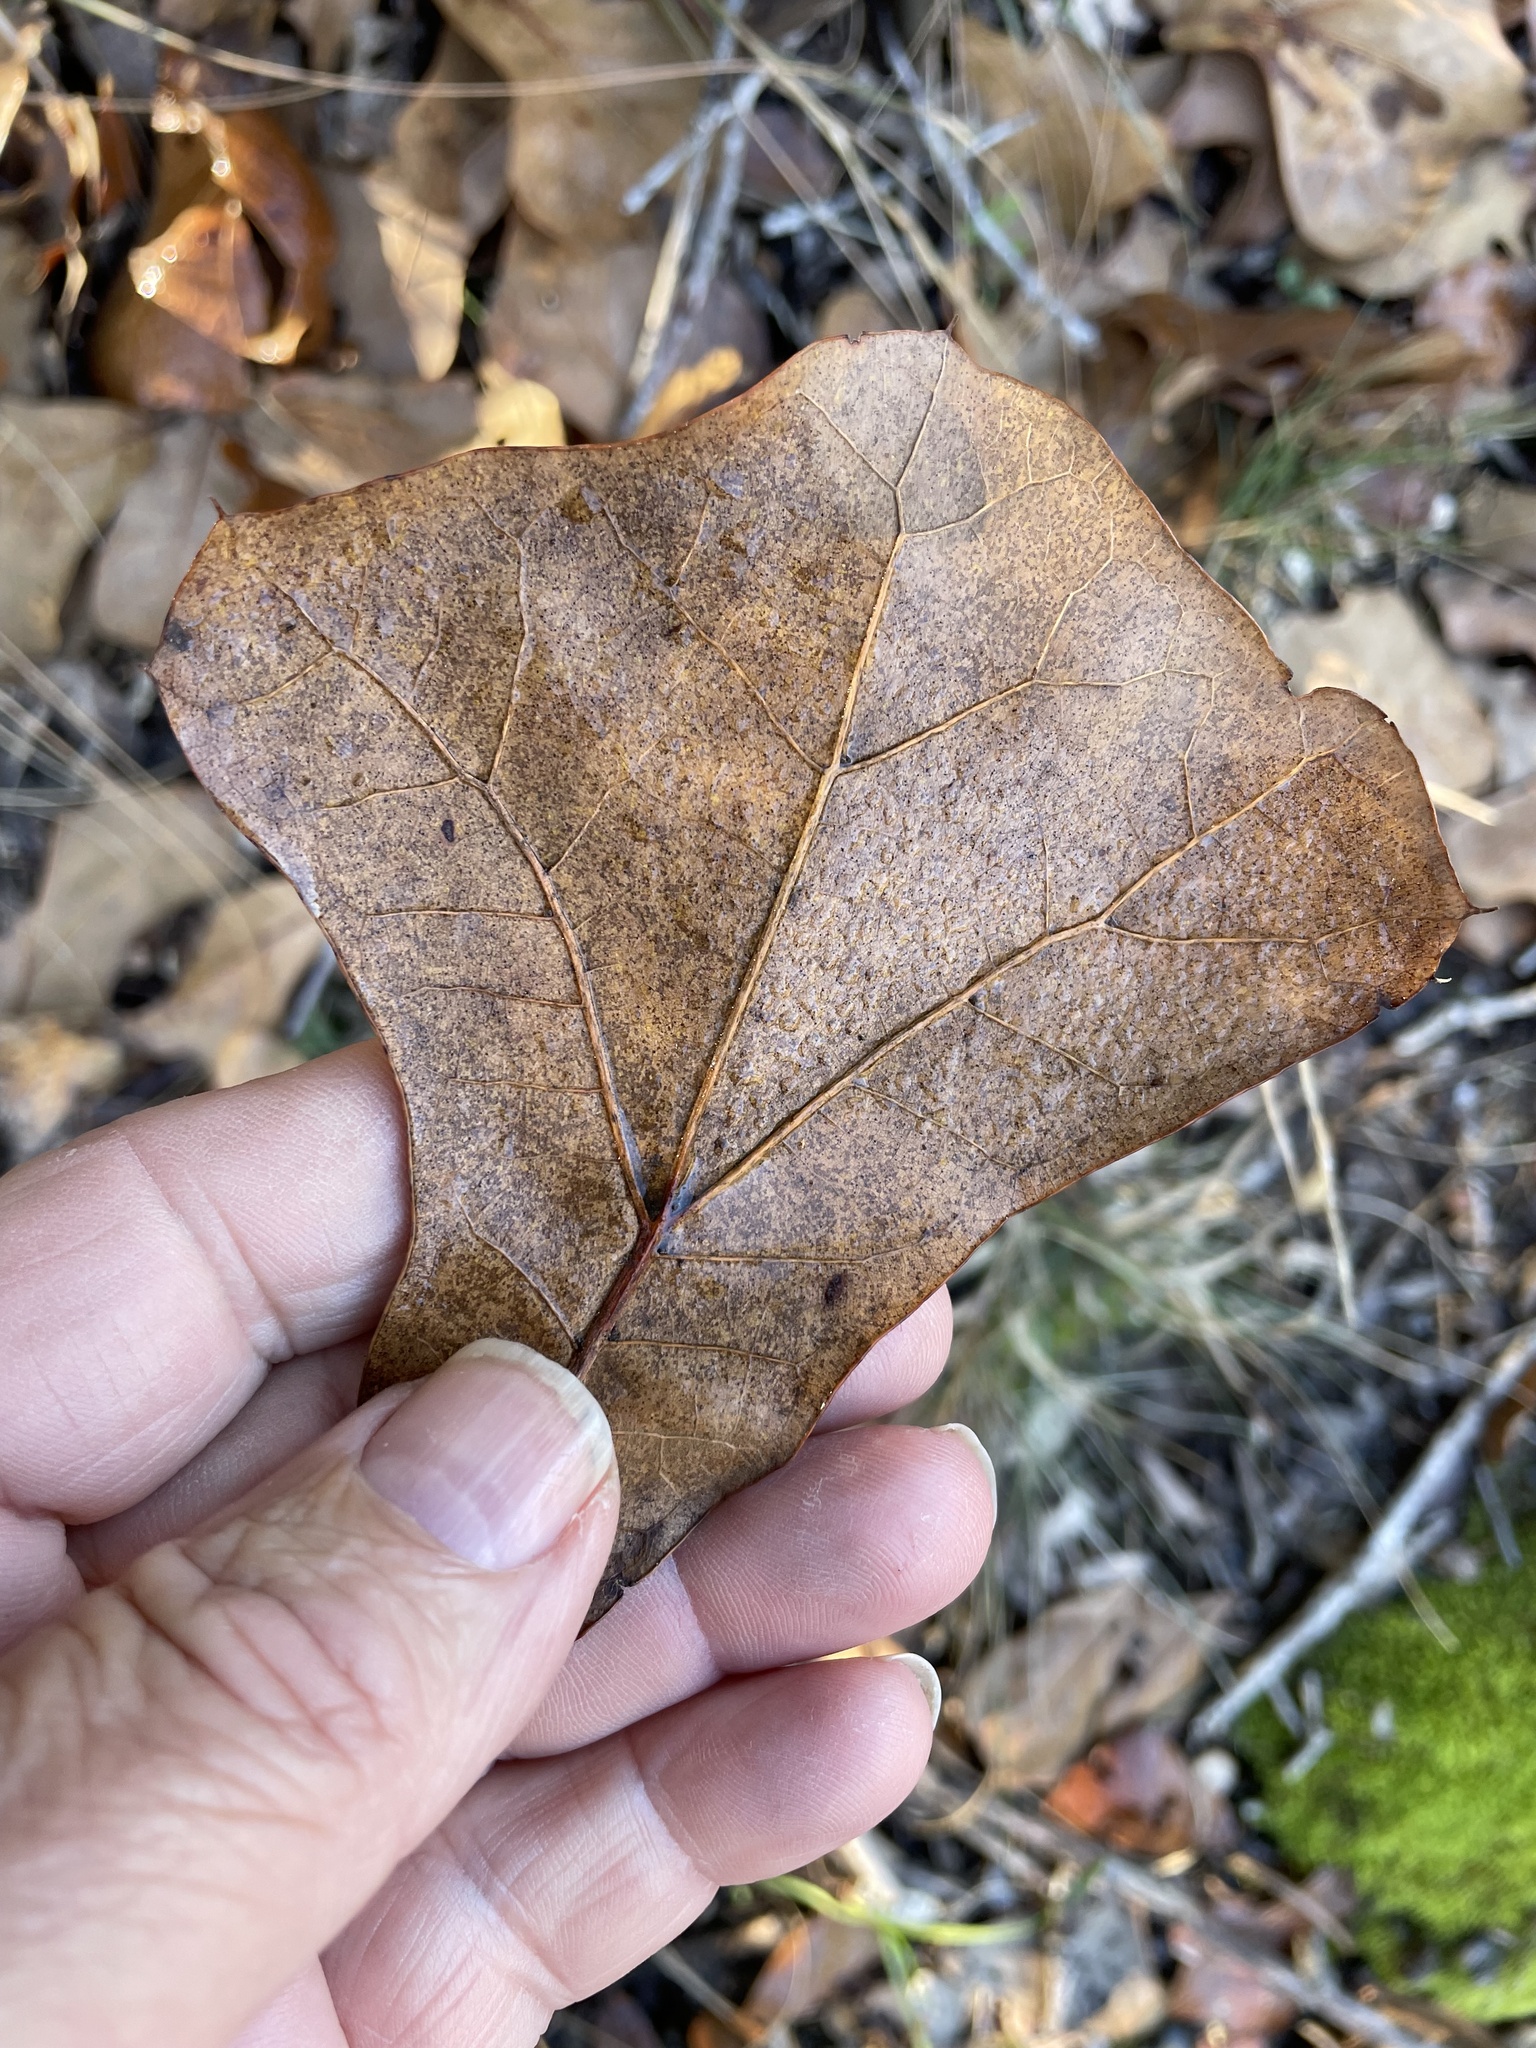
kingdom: Plantae
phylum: Tracheophyta
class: Magnoliopsida
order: Fagales
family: Fagaceae
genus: Quercus
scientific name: Quercus marilandica
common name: Blackjack oak
